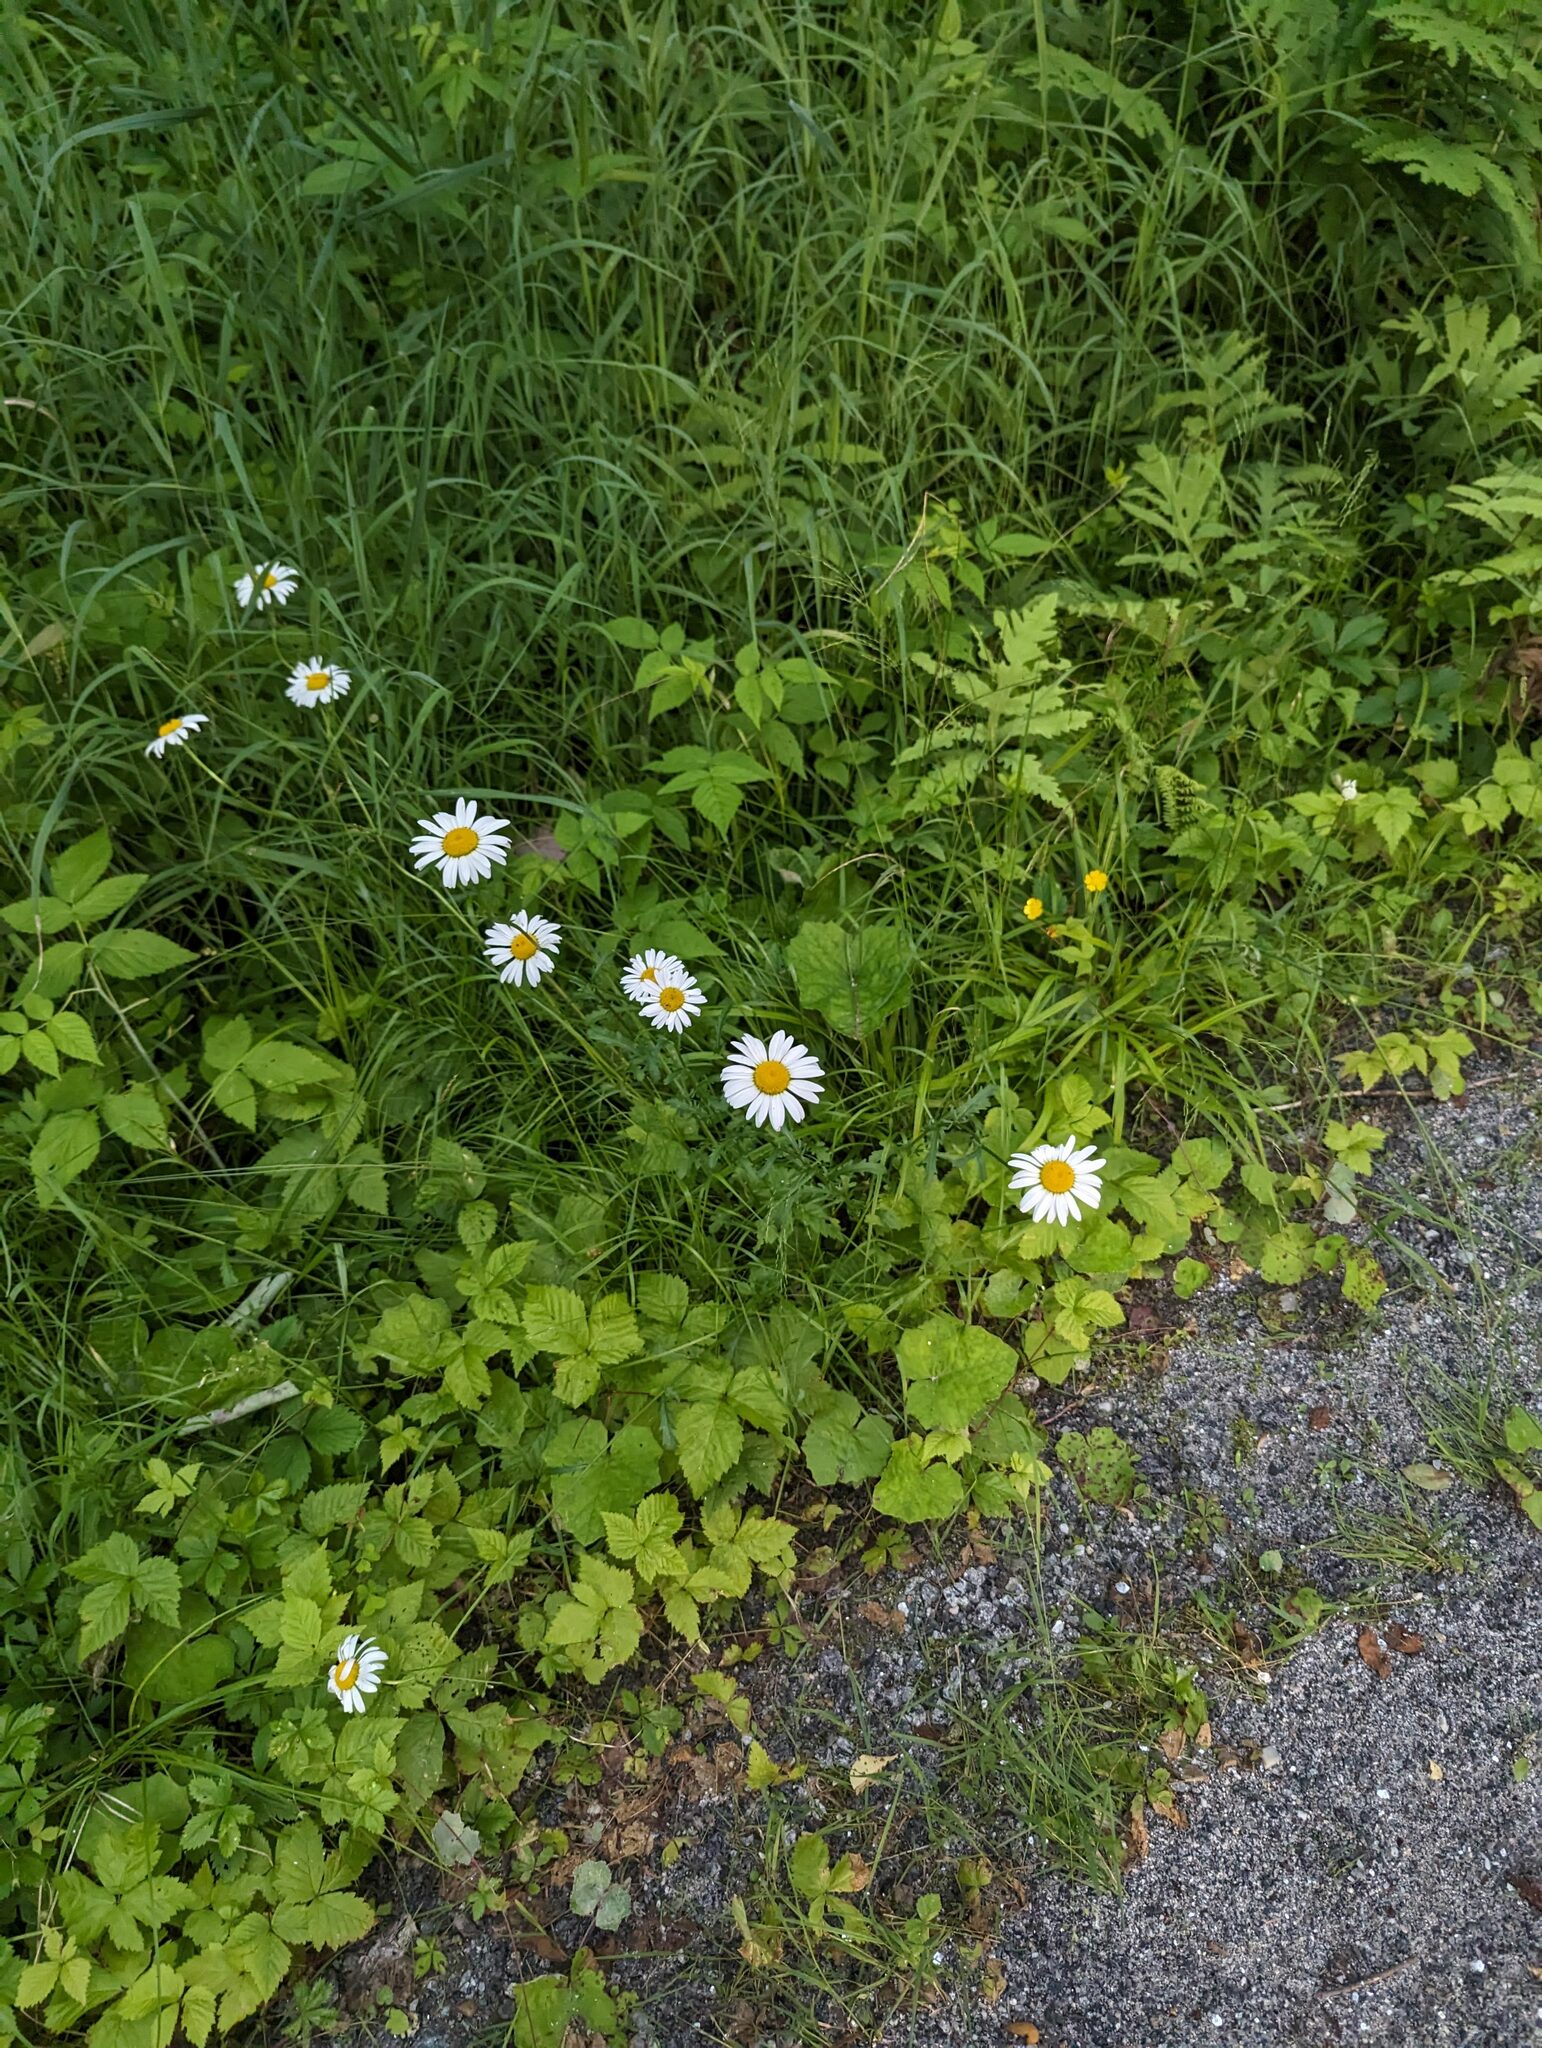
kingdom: Plantae
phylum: Tracheophyta
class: Magnoliopsida
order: Asterales
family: Asteraceae
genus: Leucanthemum
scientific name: Leucanthemum vulgare
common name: Oxeye daisy
